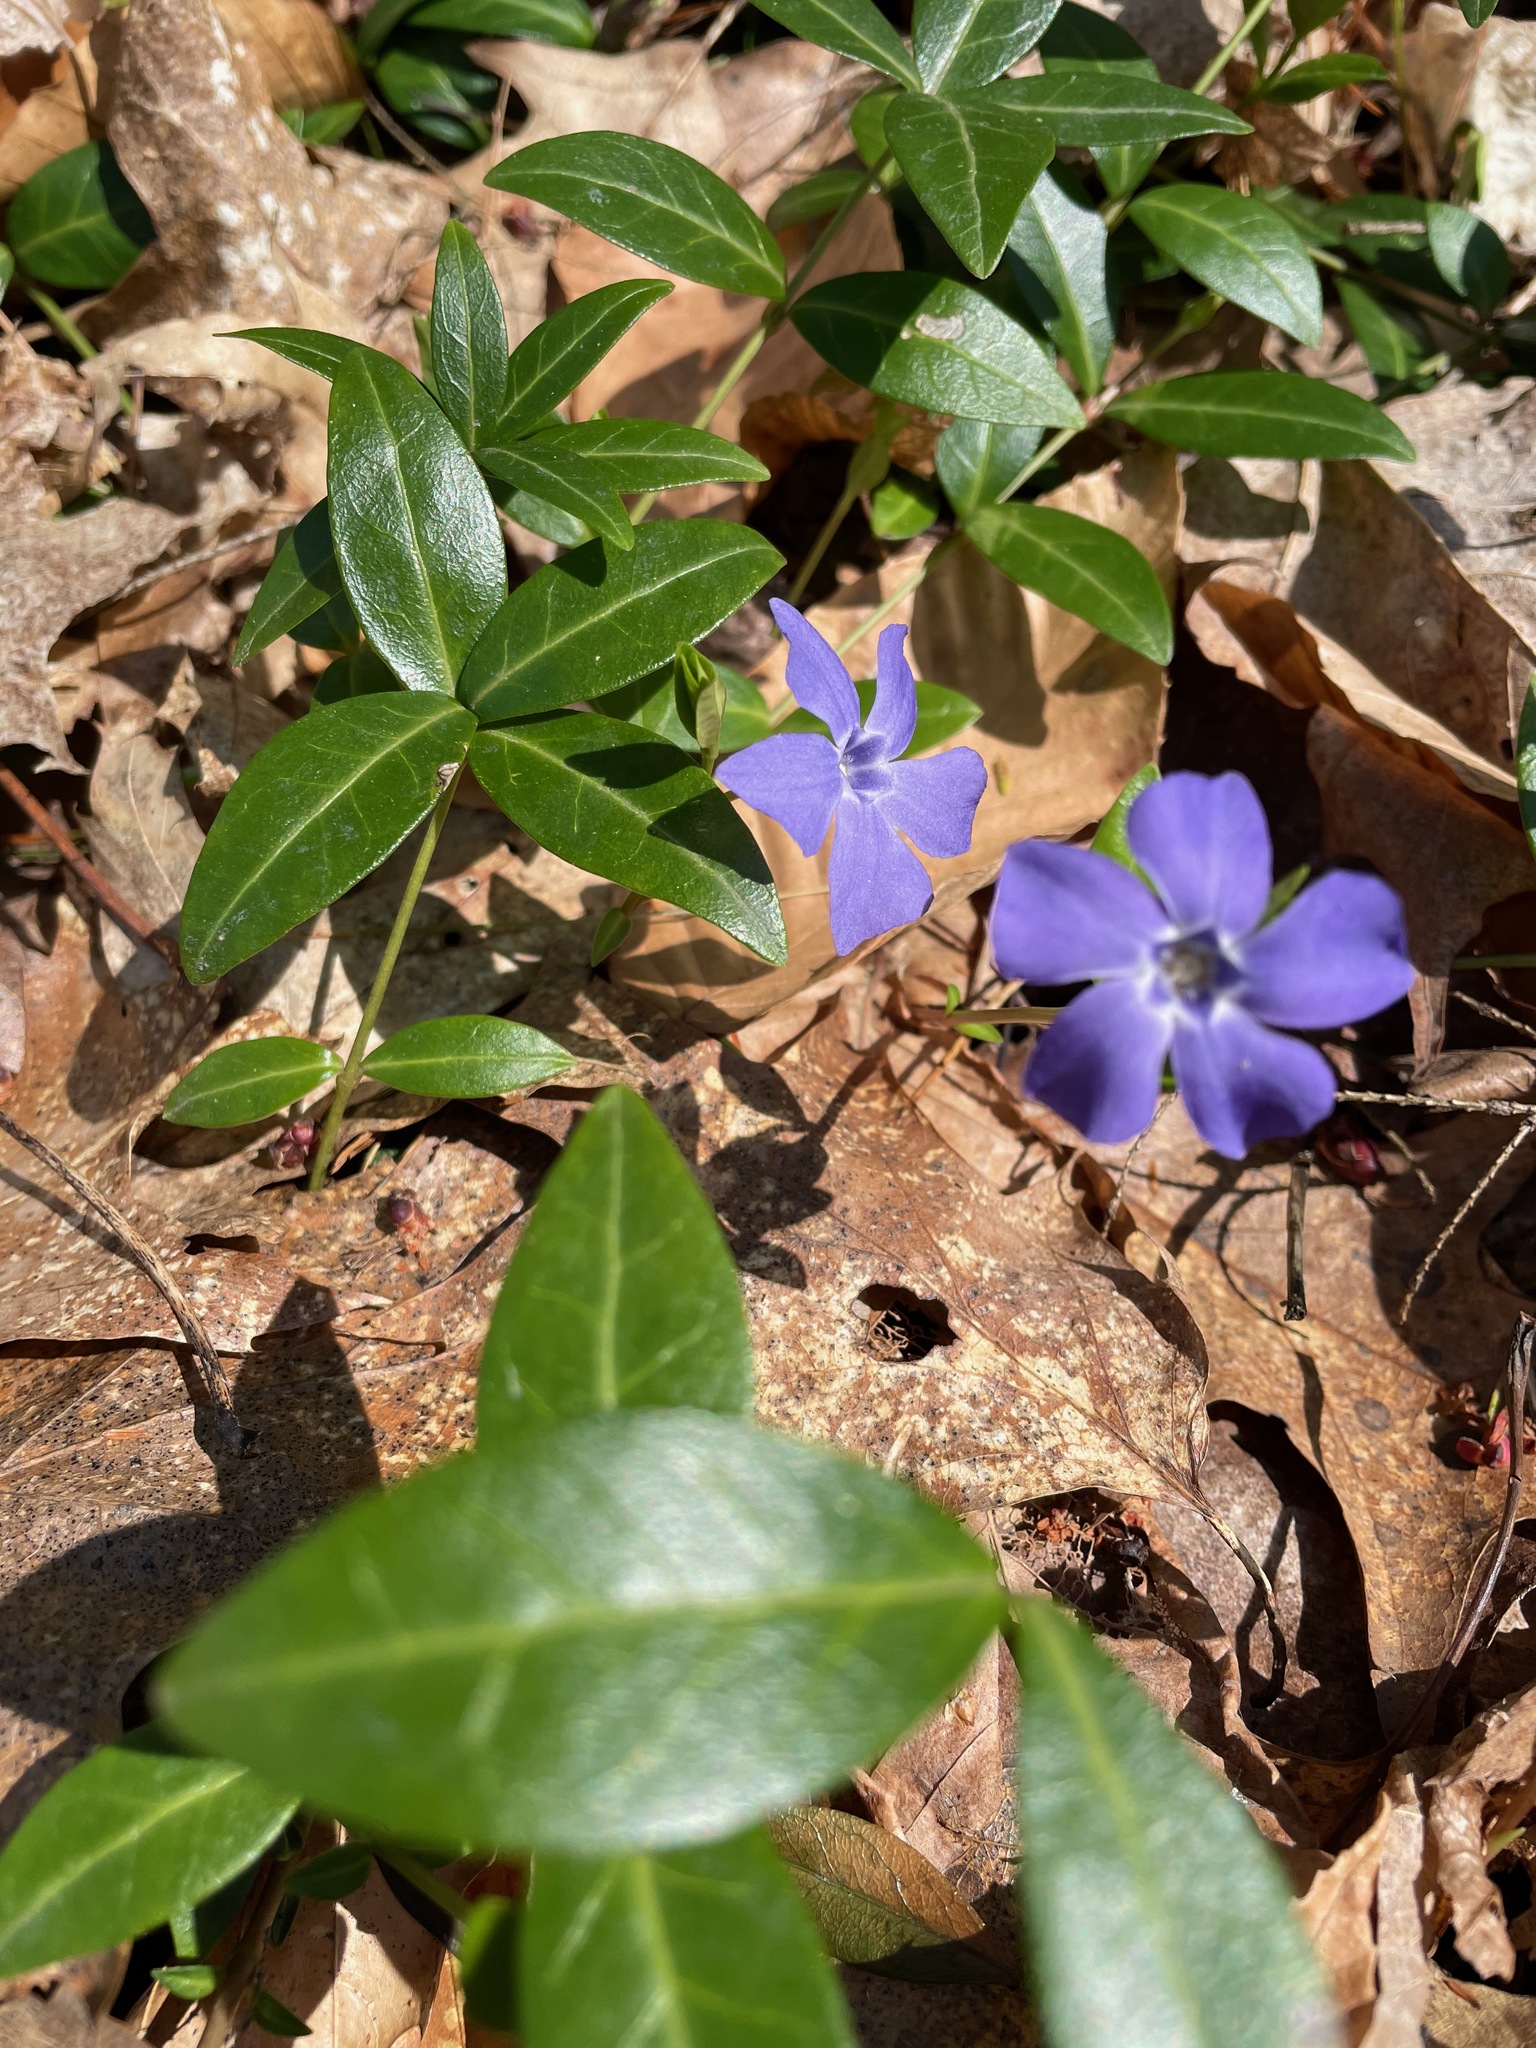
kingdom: Plantae
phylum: Tracheophyta
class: Magnoliopsida
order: Gentianales
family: Apocynaceae
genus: Vinca
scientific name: Vinca minor
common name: Lesser periwinkle
